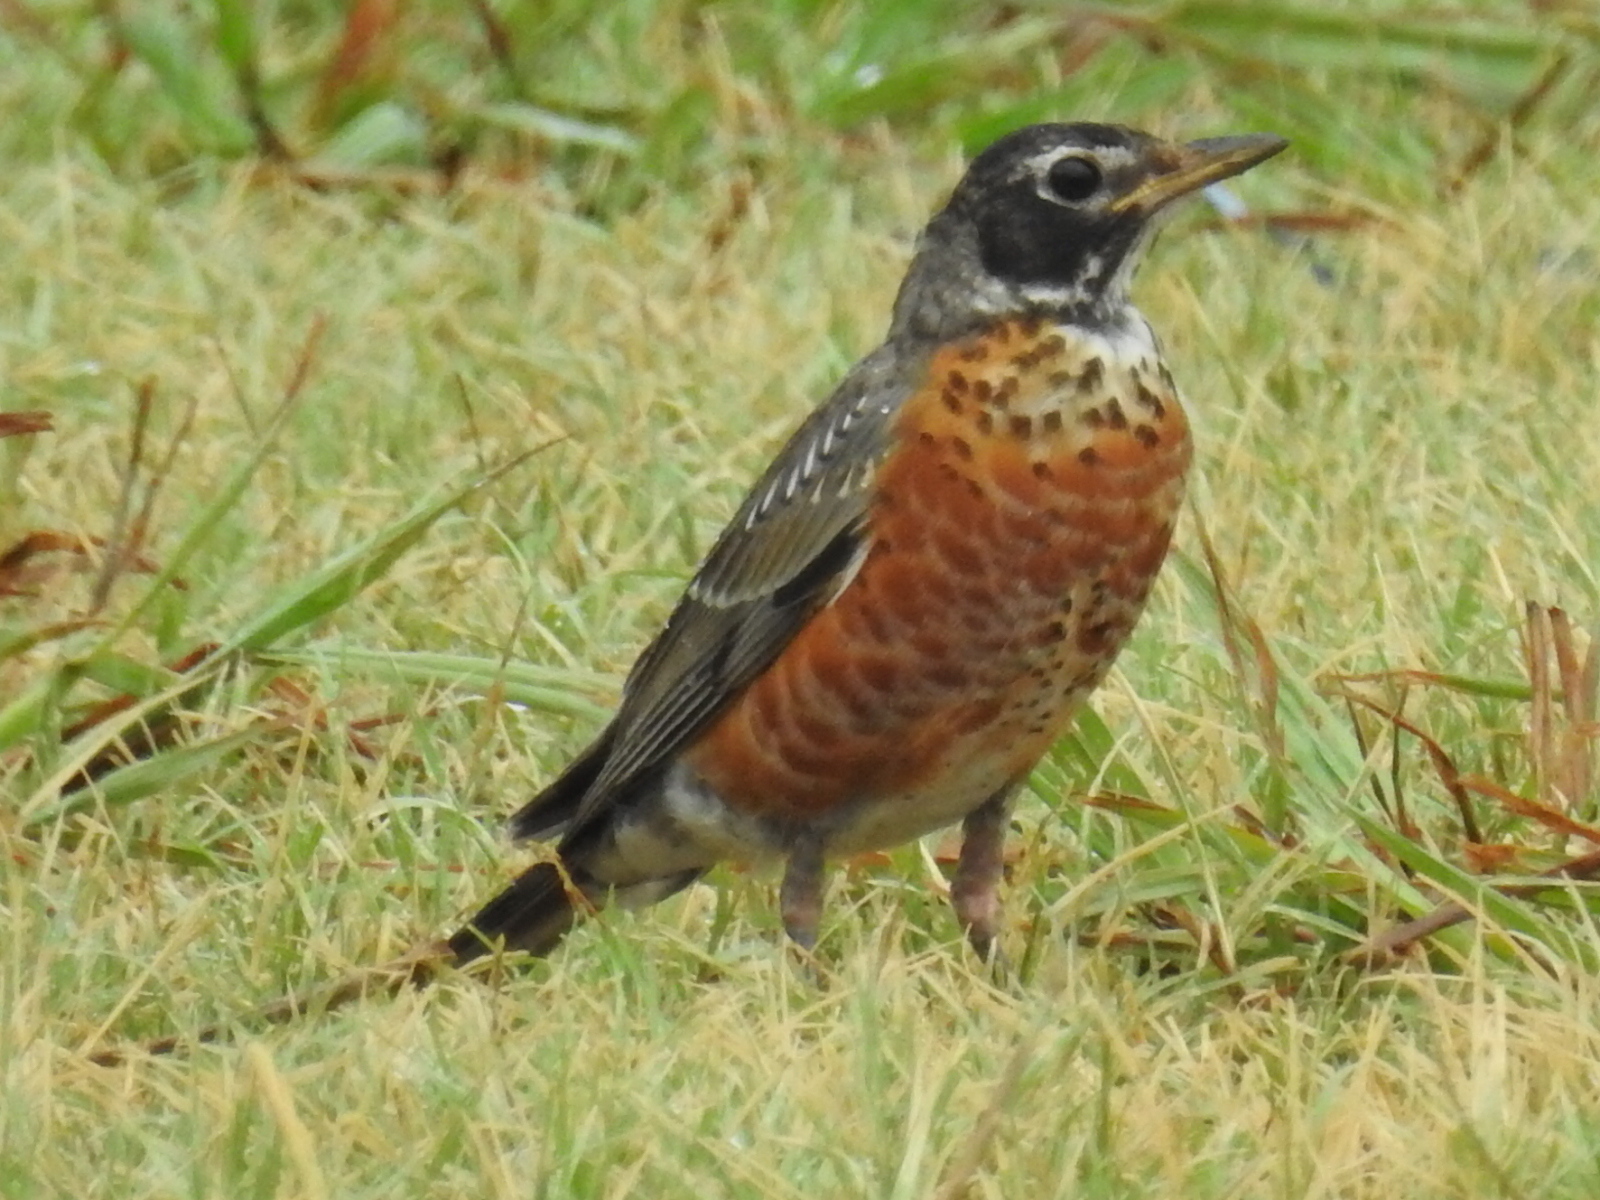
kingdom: Animalia
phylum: Chordata
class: Aves
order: Passeriformes
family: Turdidae
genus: Turdus
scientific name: Turdus migratorius
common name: American robin
